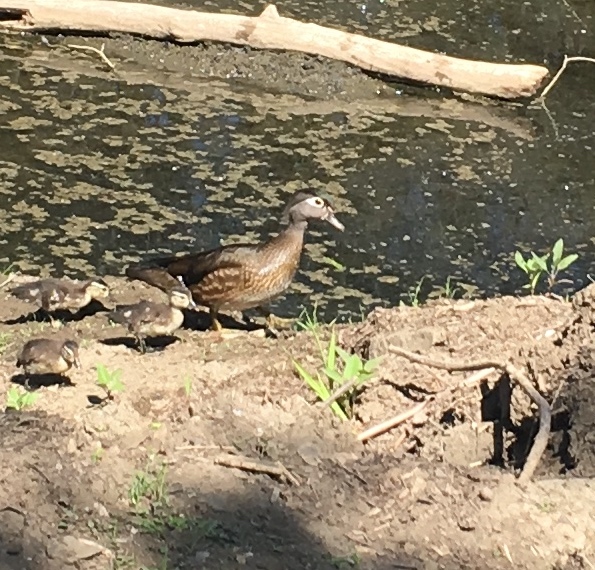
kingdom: Animalia
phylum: Chordata
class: Aves
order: Anseriformes
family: Anatidae
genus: Aix
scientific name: Aix sponsa
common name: Wood duck
